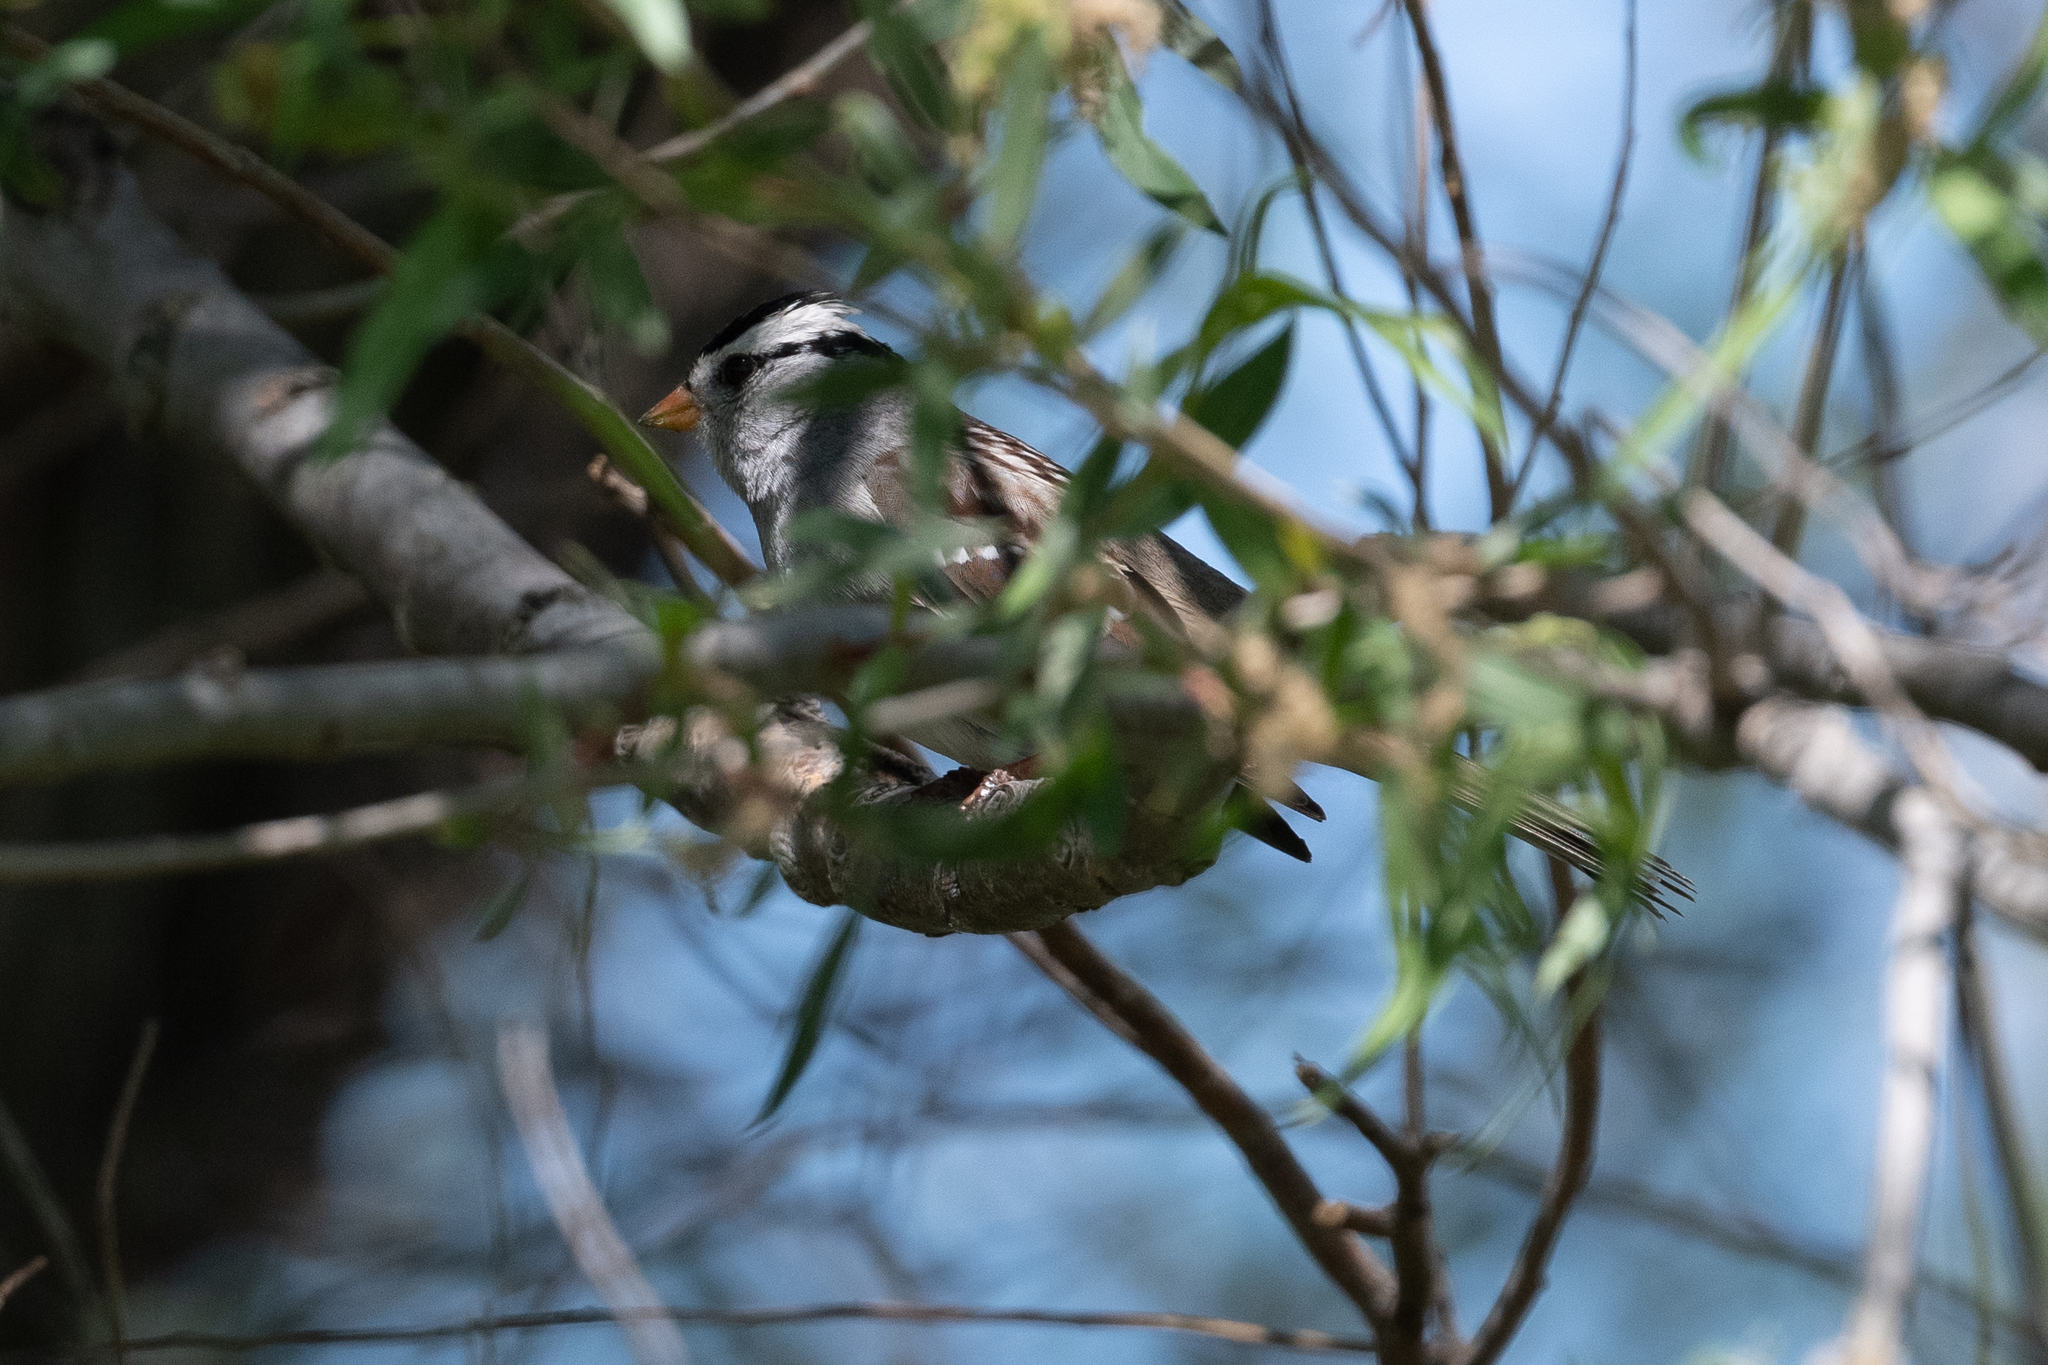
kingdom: Animalia
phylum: Chordata
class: Aves
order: Passeriformes
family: Passerellidae
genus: Zonotrichia
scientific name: Zonotrichia leucophrys
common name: White-crowned sparrow
